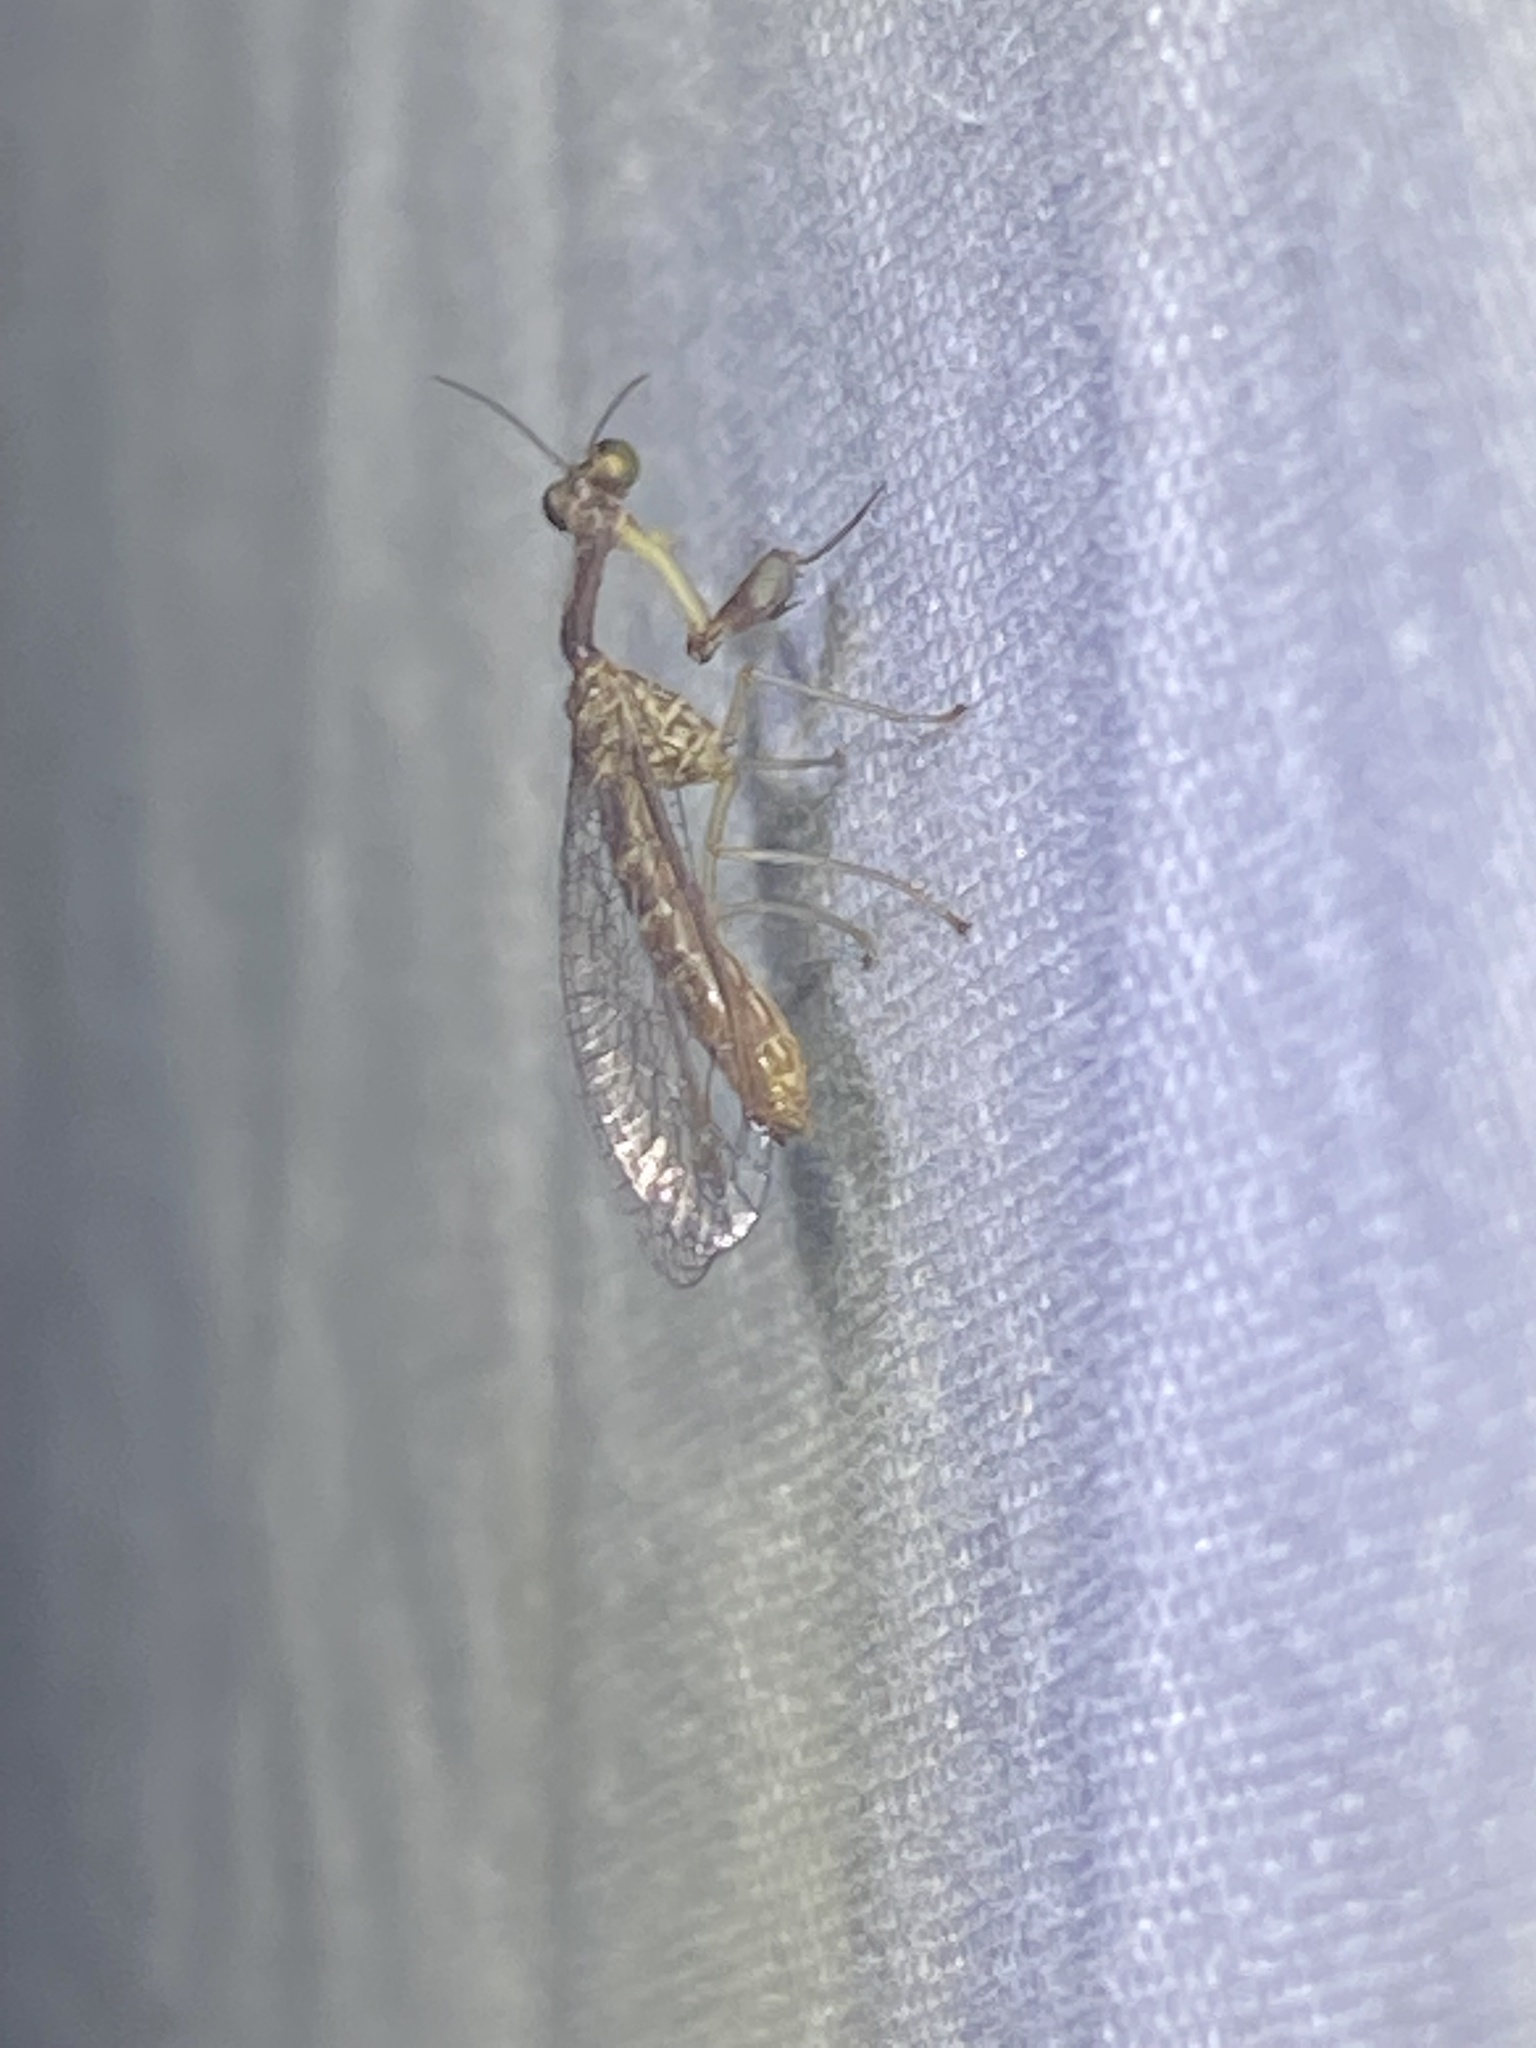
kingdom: Animalia
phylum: Arthropoda
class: Insecta
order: Neuroptera
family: Mantispidae
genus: Leptomantispa
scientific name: Leptomantispa pulchella
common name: Stevens's mantidfly
